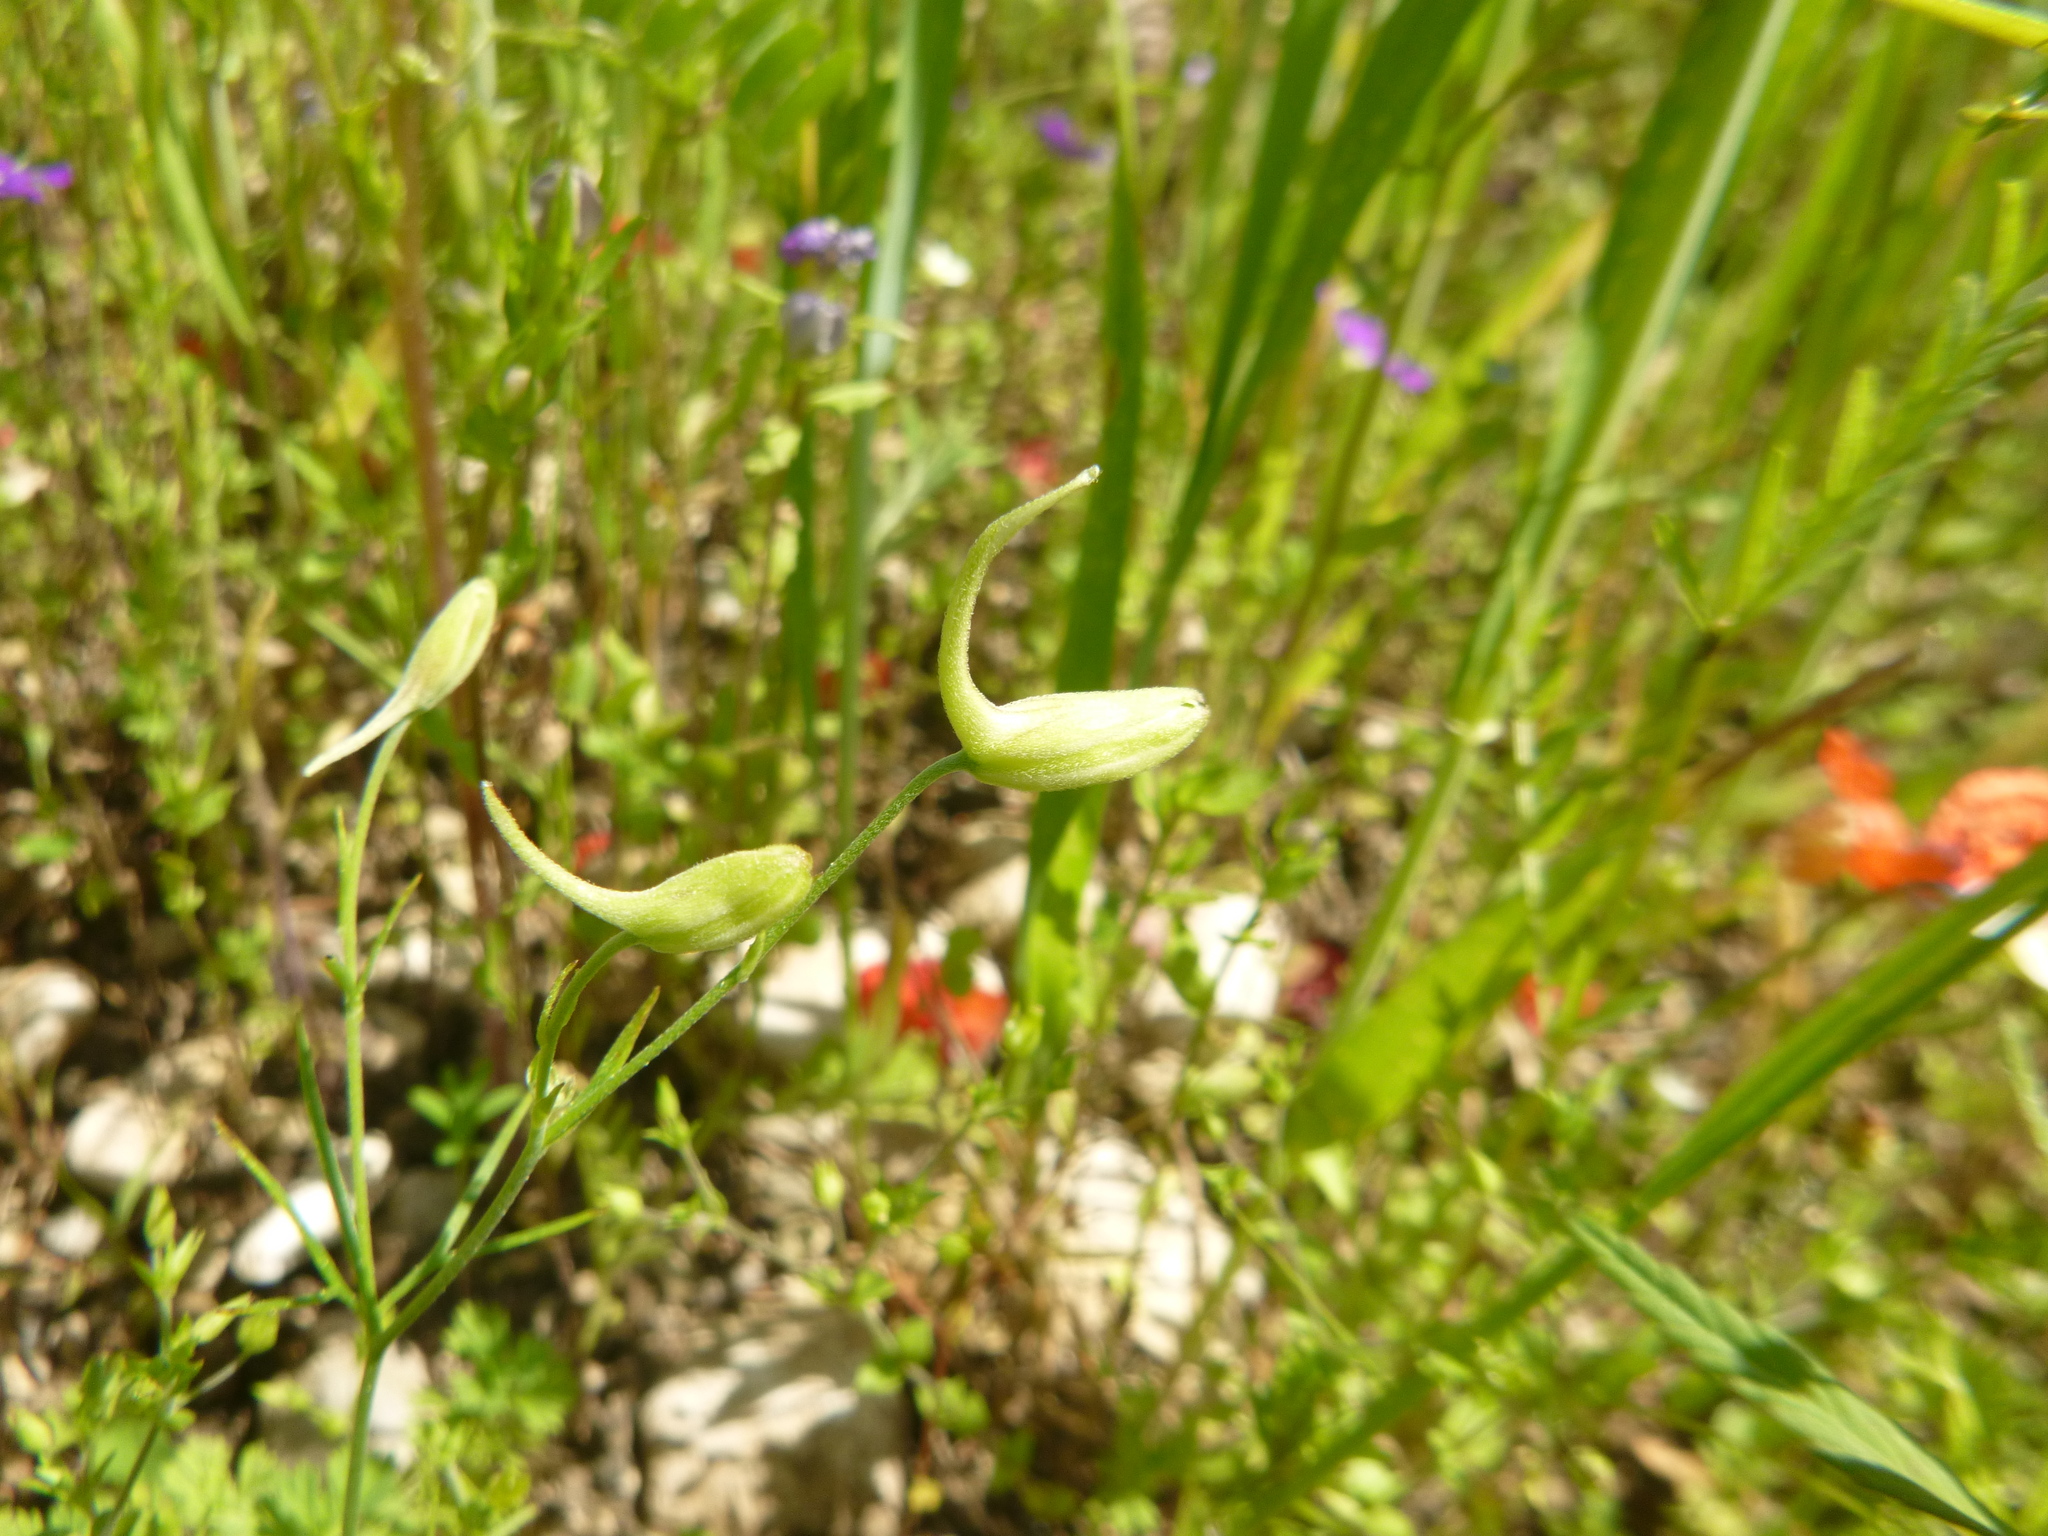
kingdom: Plantae
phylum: Tracheophyta
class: Magnoliopsida
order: Ranunculales
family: Ranunculaceae
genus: Delphinium
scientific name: Delphinium consolida
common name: Branching larkspur
